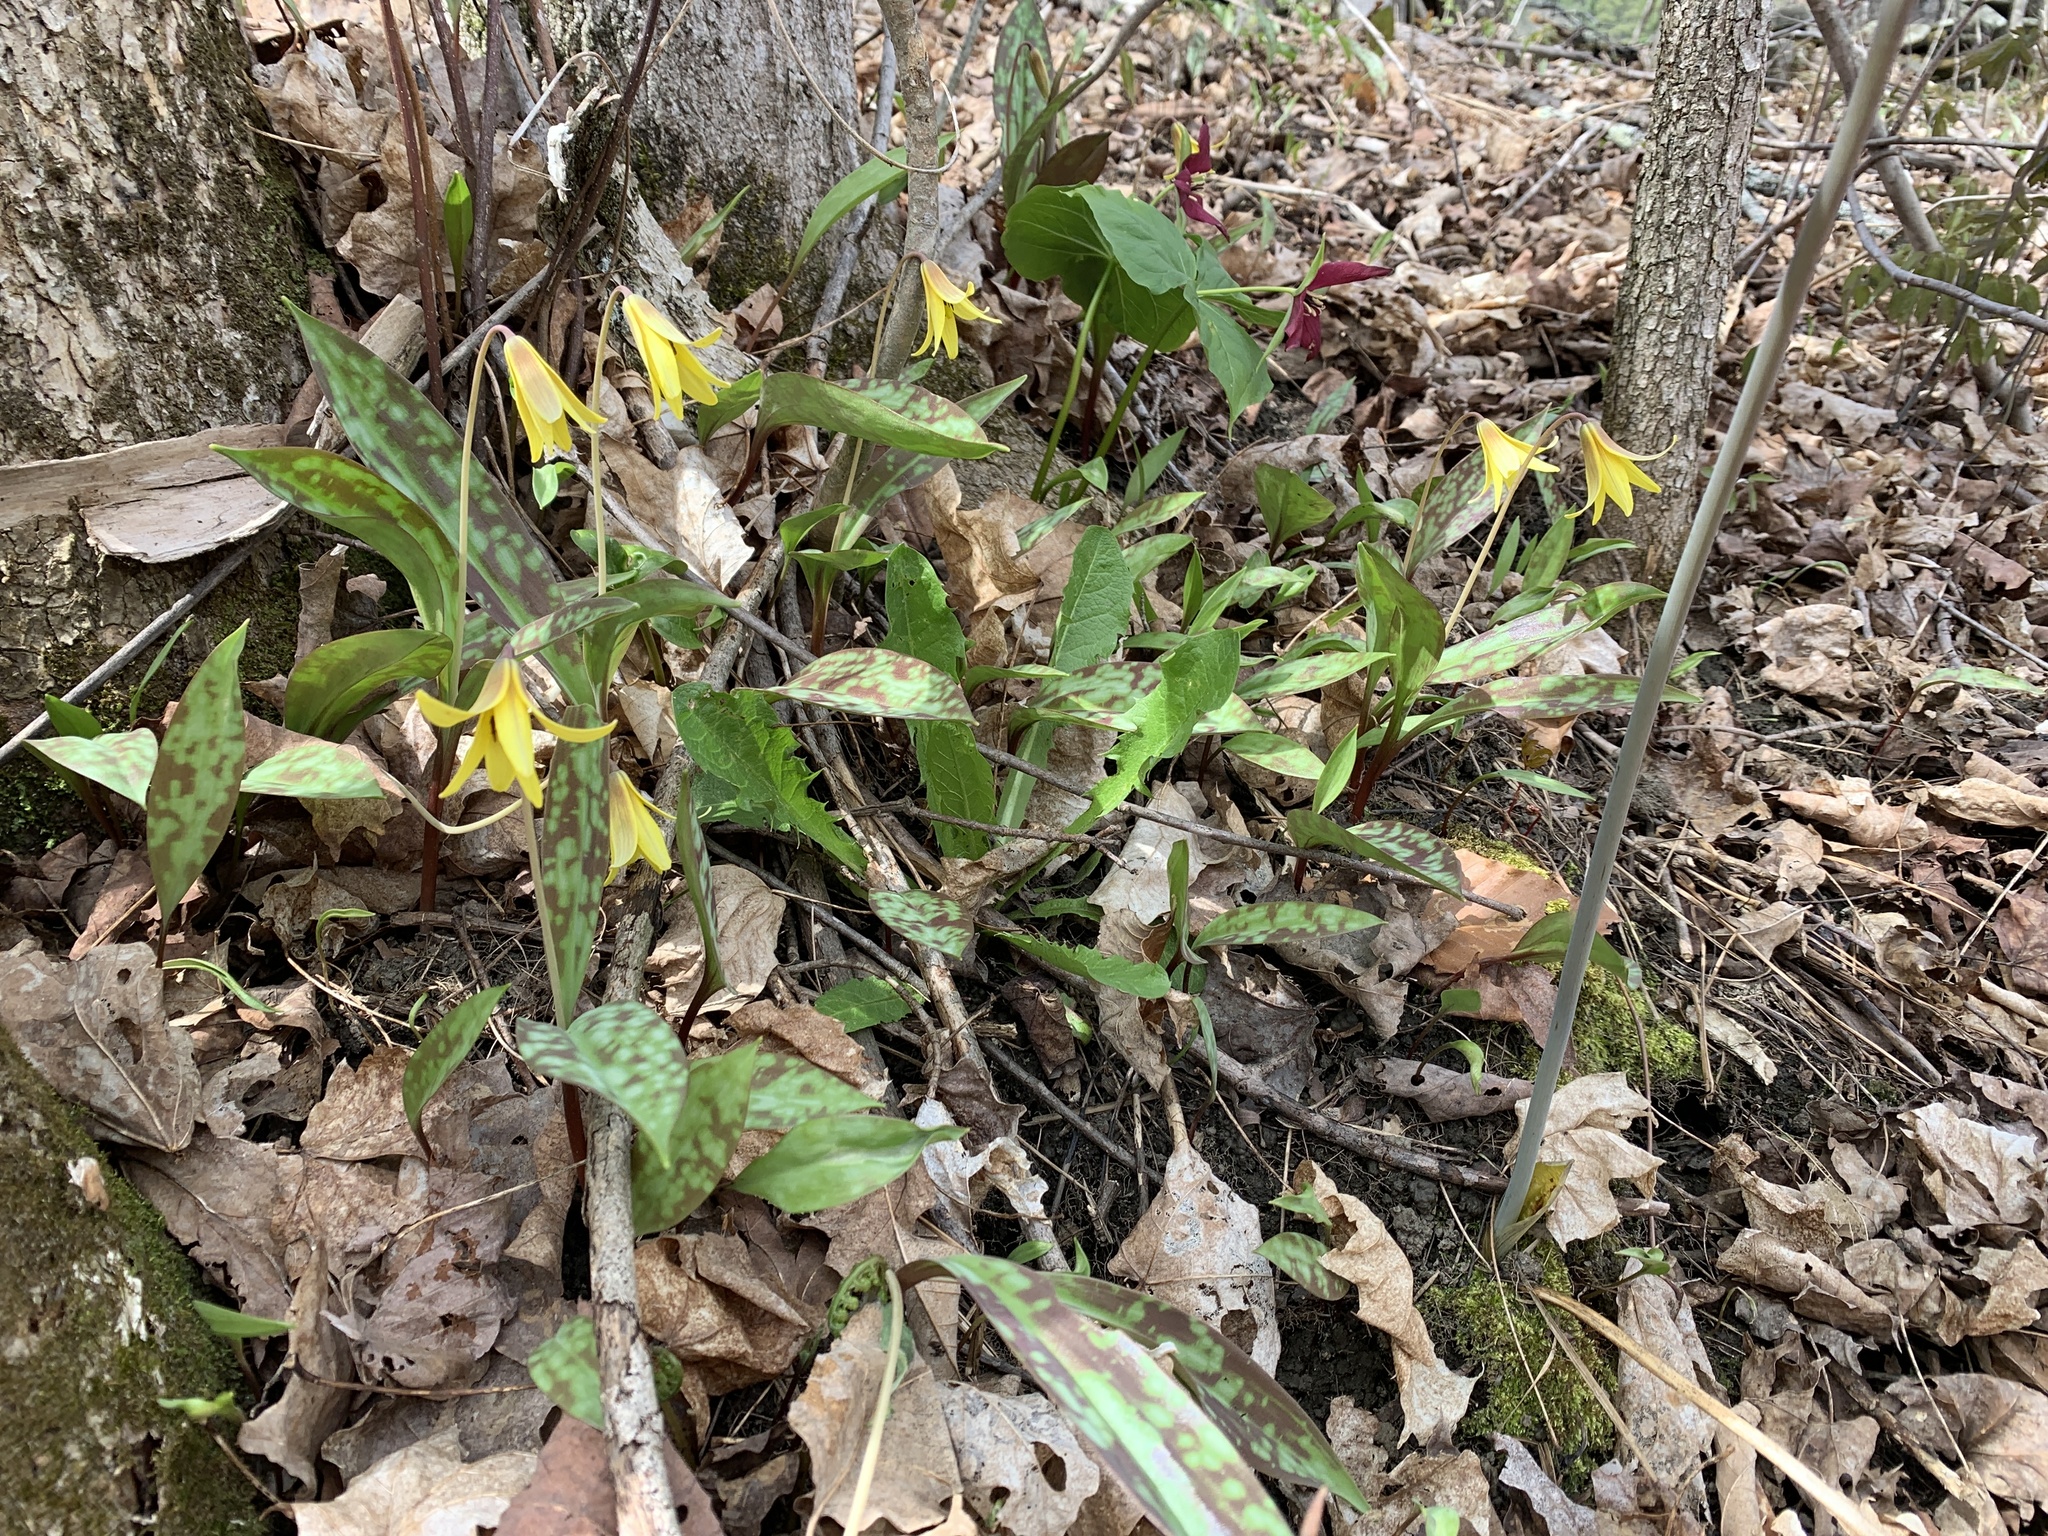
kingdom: Plantae
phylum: Tracheophyta
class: Liliopsida
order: Liliales
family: Liliaceae
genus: Erythronium
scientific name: Erythronium americanum
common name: Yellow adder's-tongue
